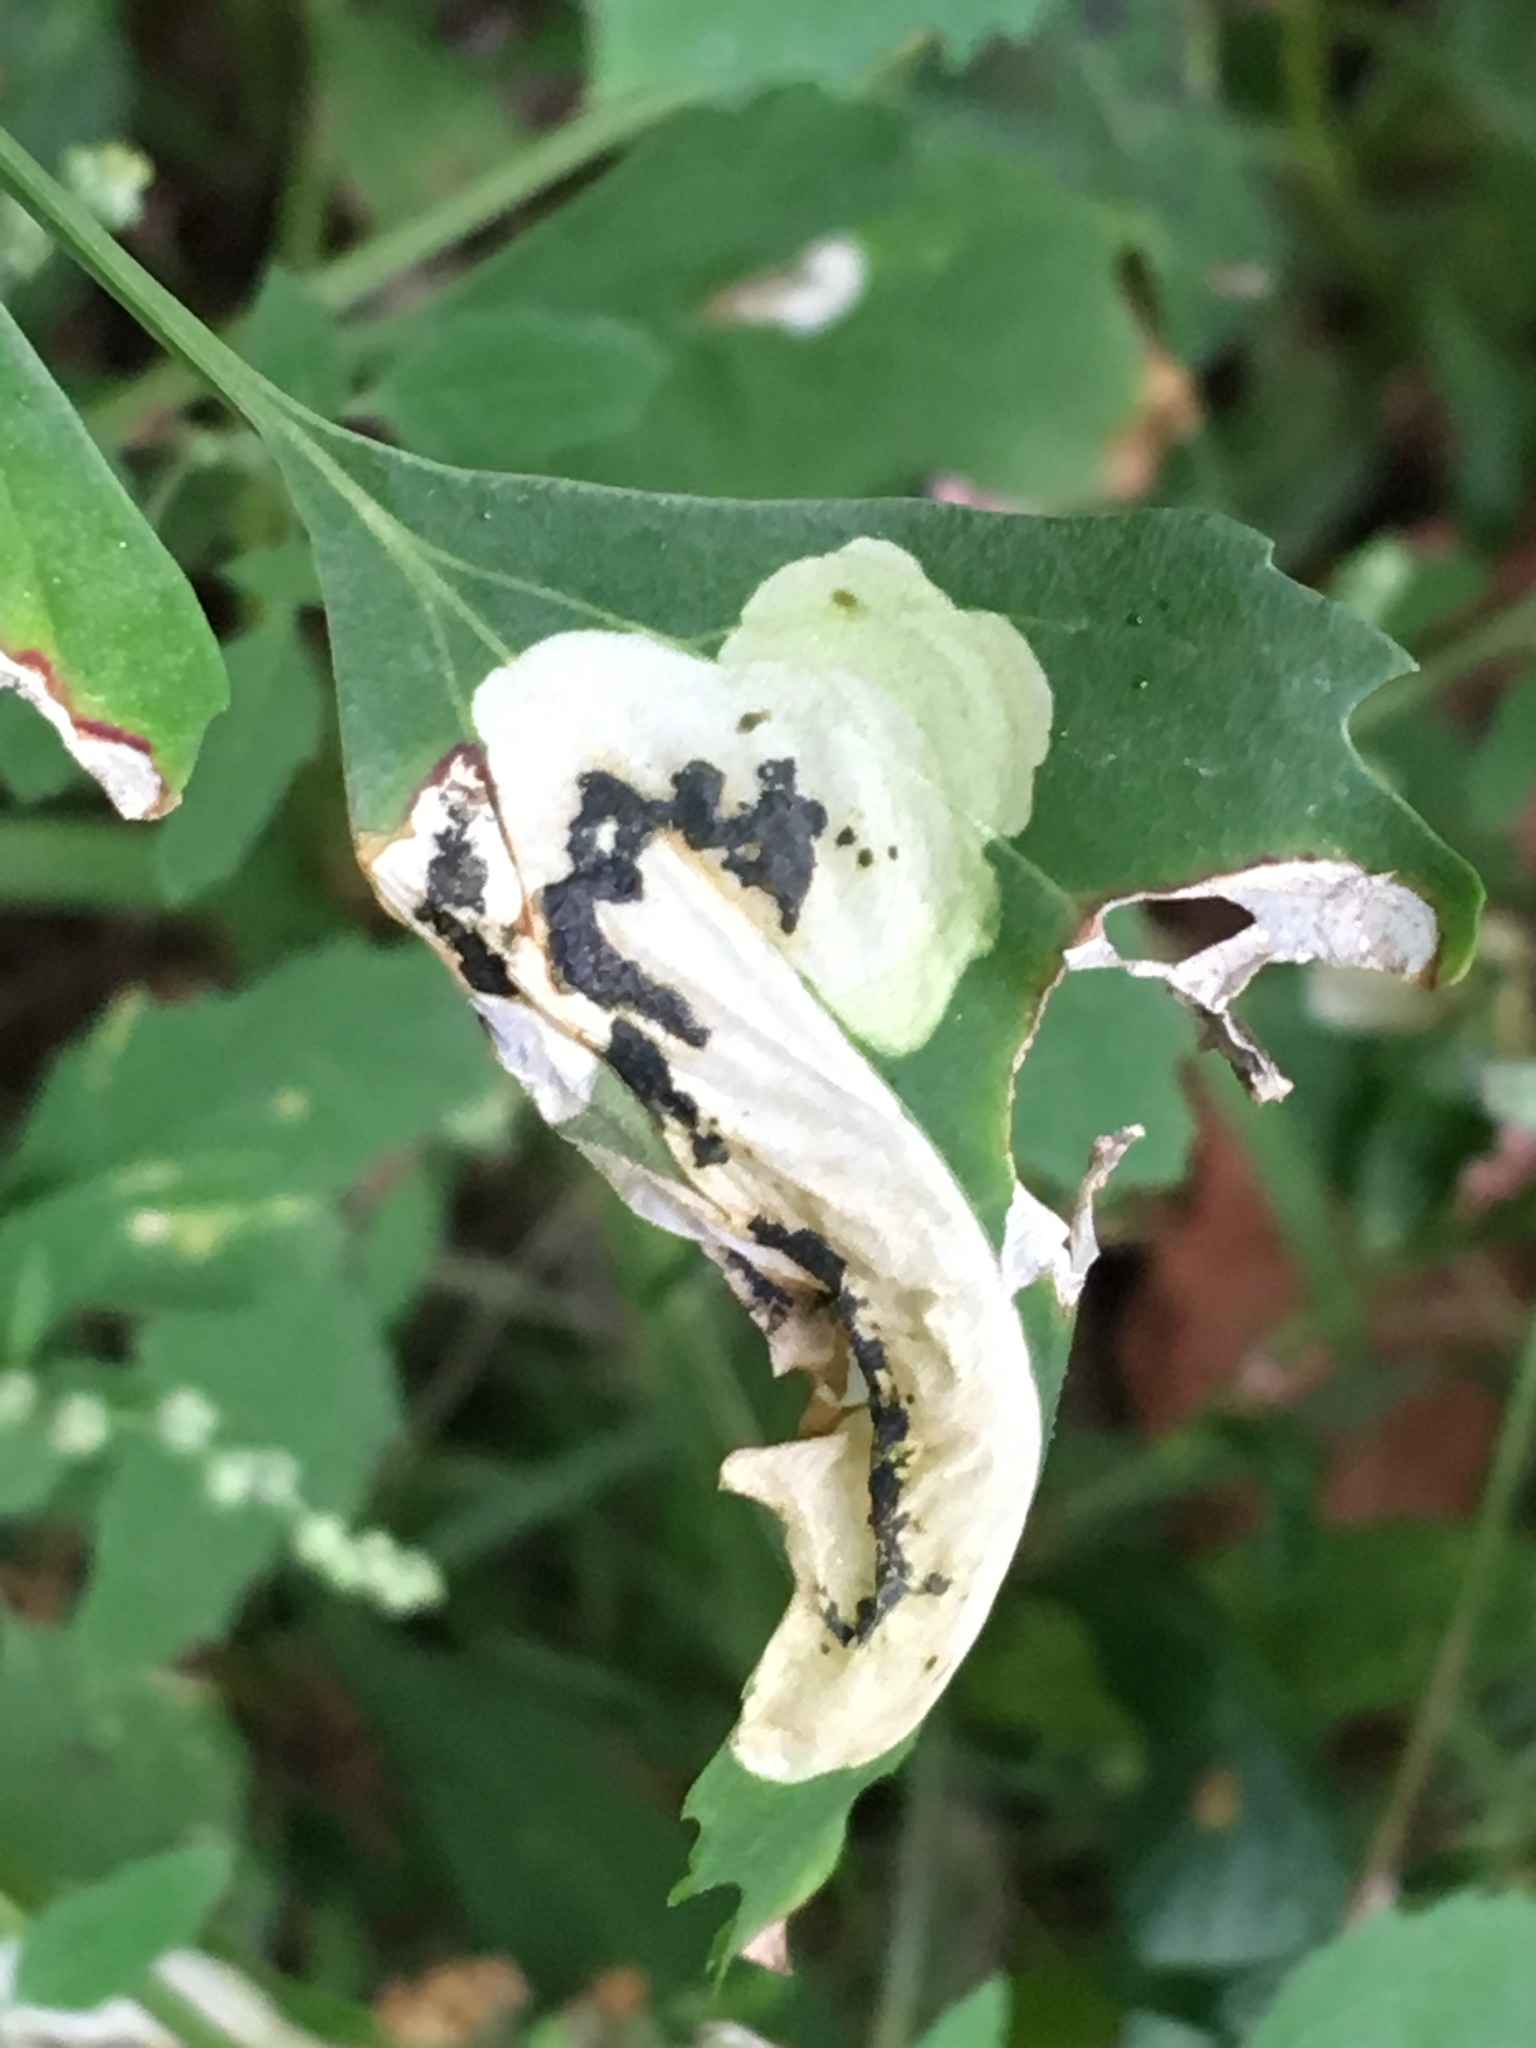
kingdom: Animalia
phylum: Arthropoda
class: Insecta
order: Lepidoptera
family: Gelechiidae
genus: Chrysoesthia
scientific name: Chrysoesthia sexguttella
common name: Moth
